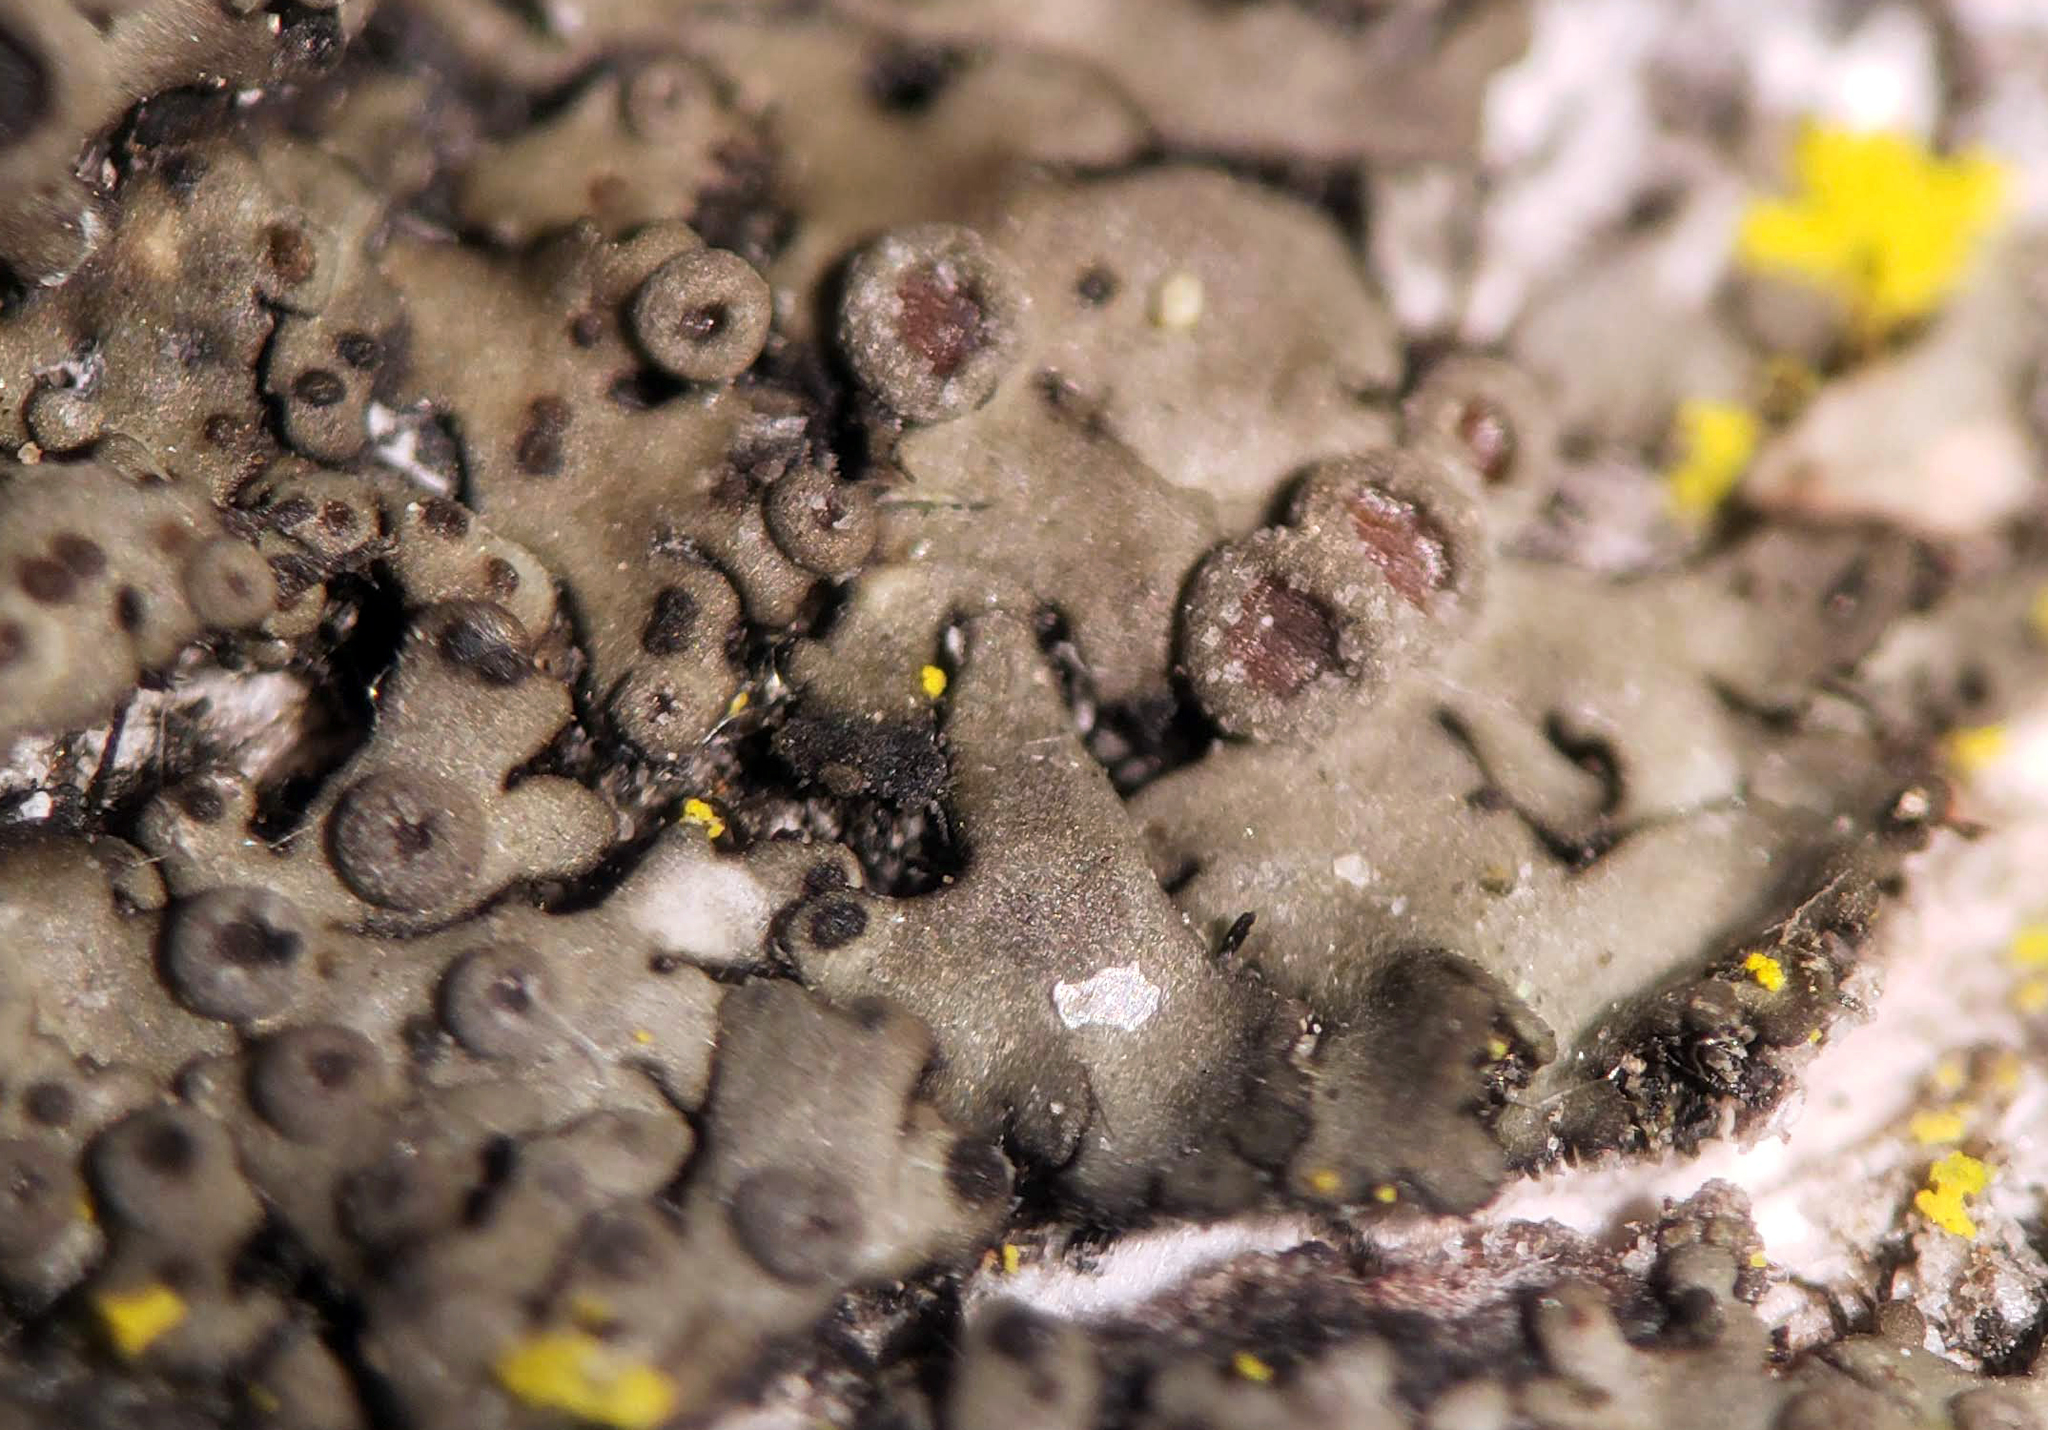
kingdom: Fungi
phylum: Ascomycota
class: Lecanoromycetes
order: Caliciales
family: Physciaceae
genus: Phaeophyscia
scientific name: Phaeophyscia ciliata
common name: Smooth shadow lichen
